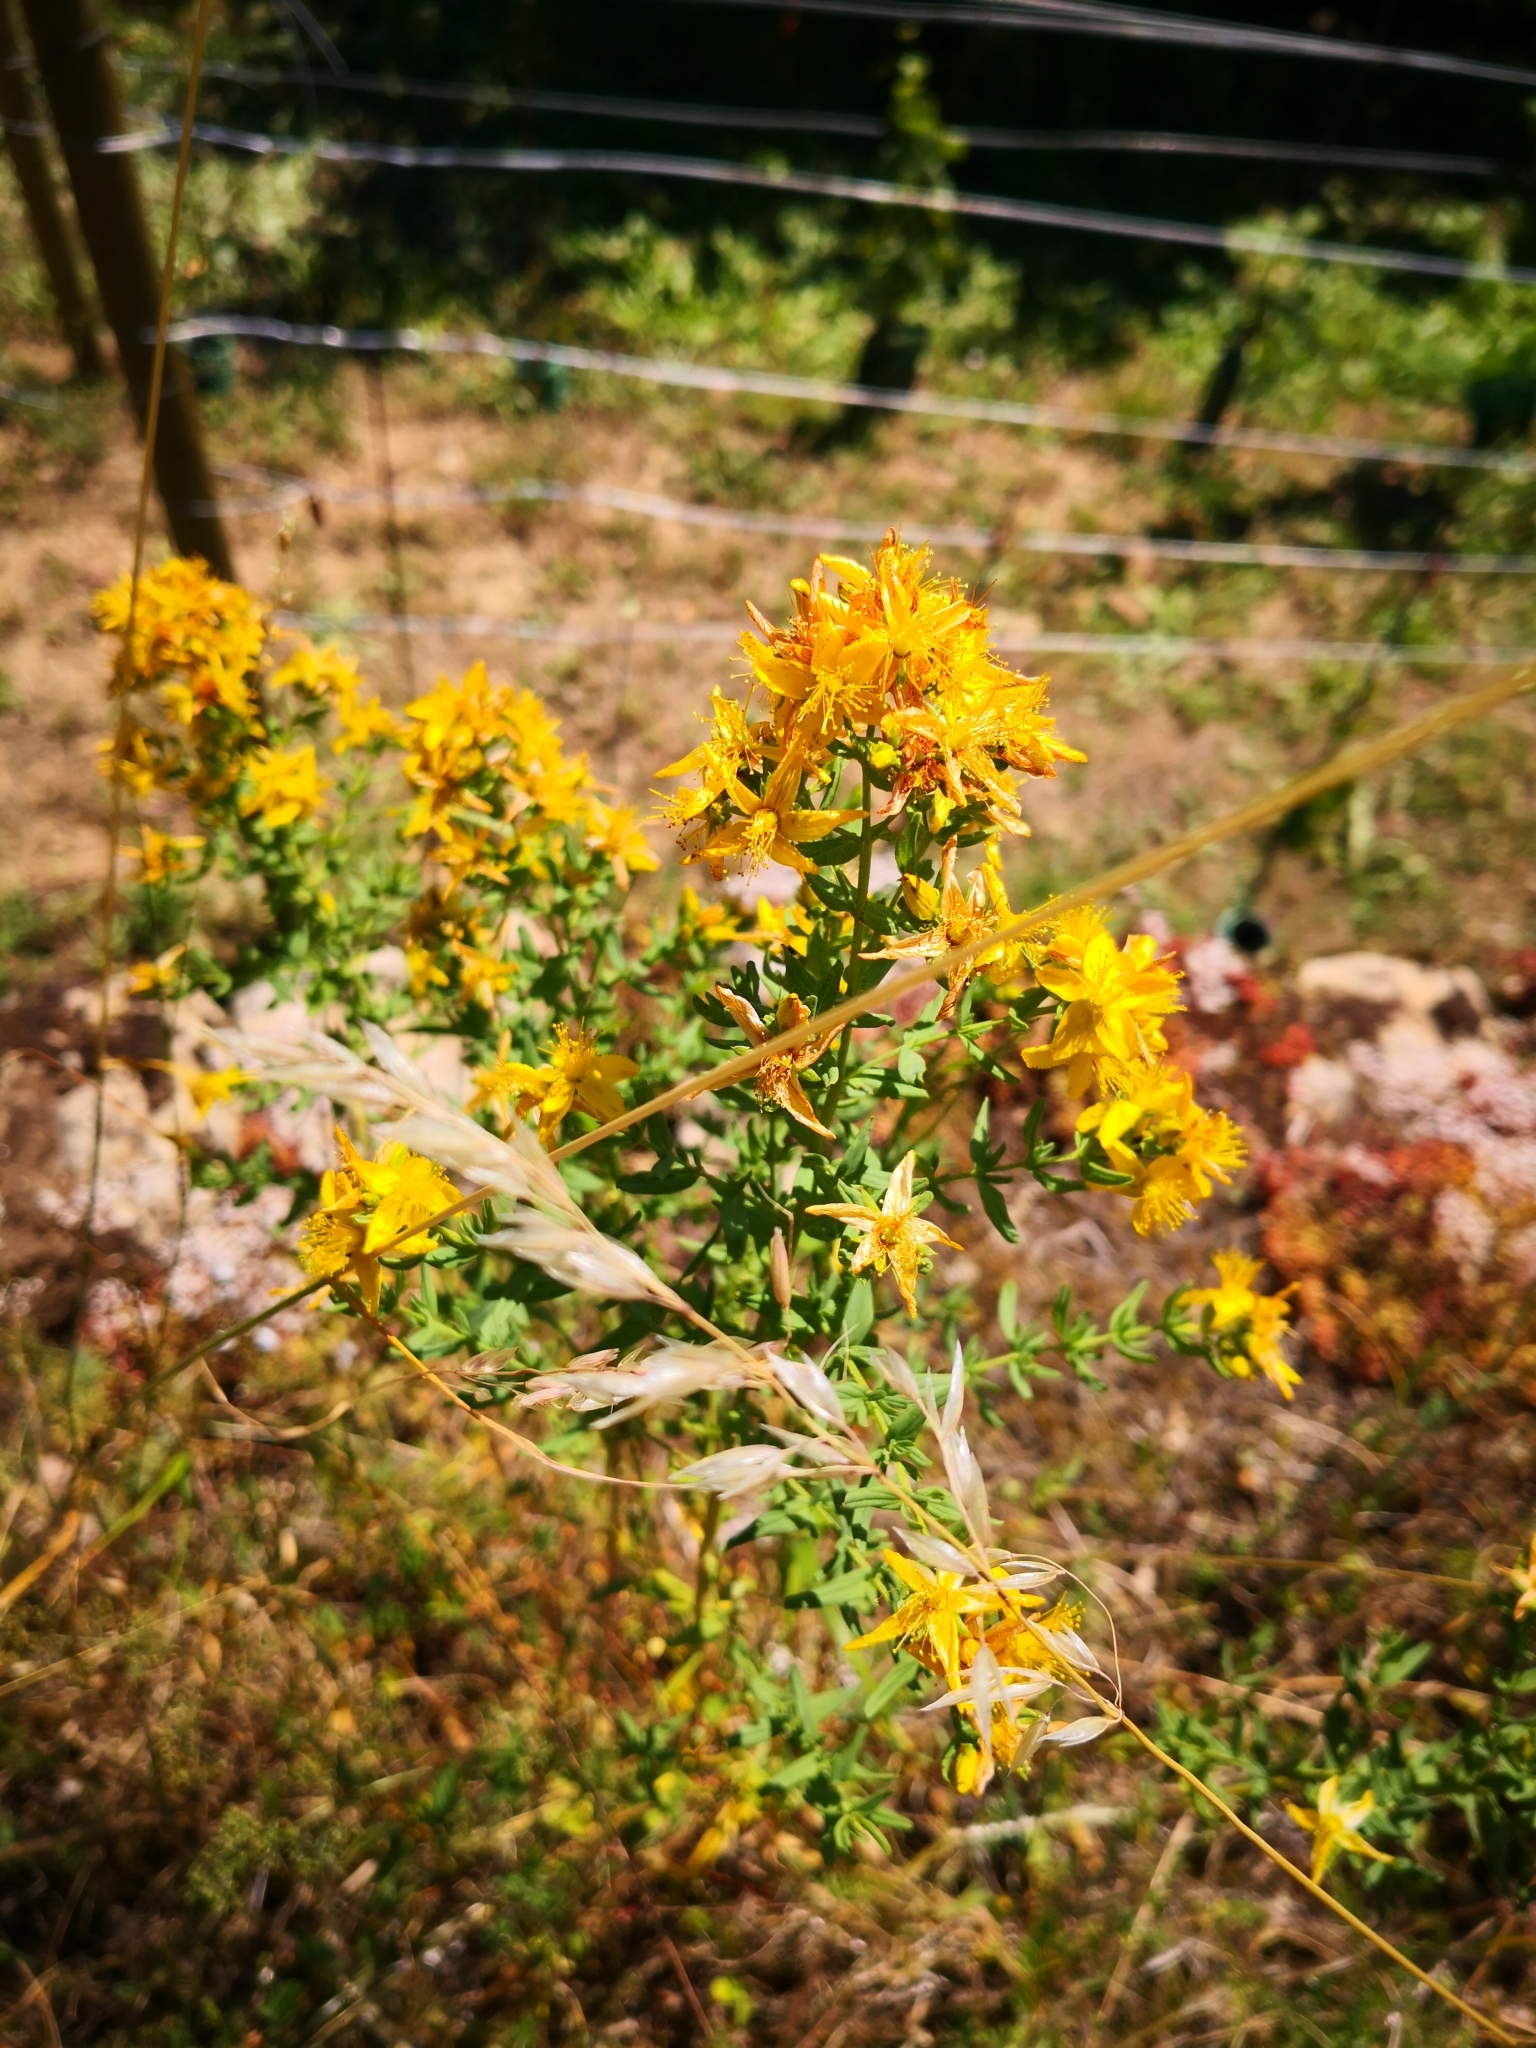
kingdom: Plantae
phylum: Tracheophyta
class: Magnoliopsida
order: Malpighiales
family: Hypericaceae
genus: Hypericum
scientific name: Hypericum perforatum
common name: Common st. johnswort
